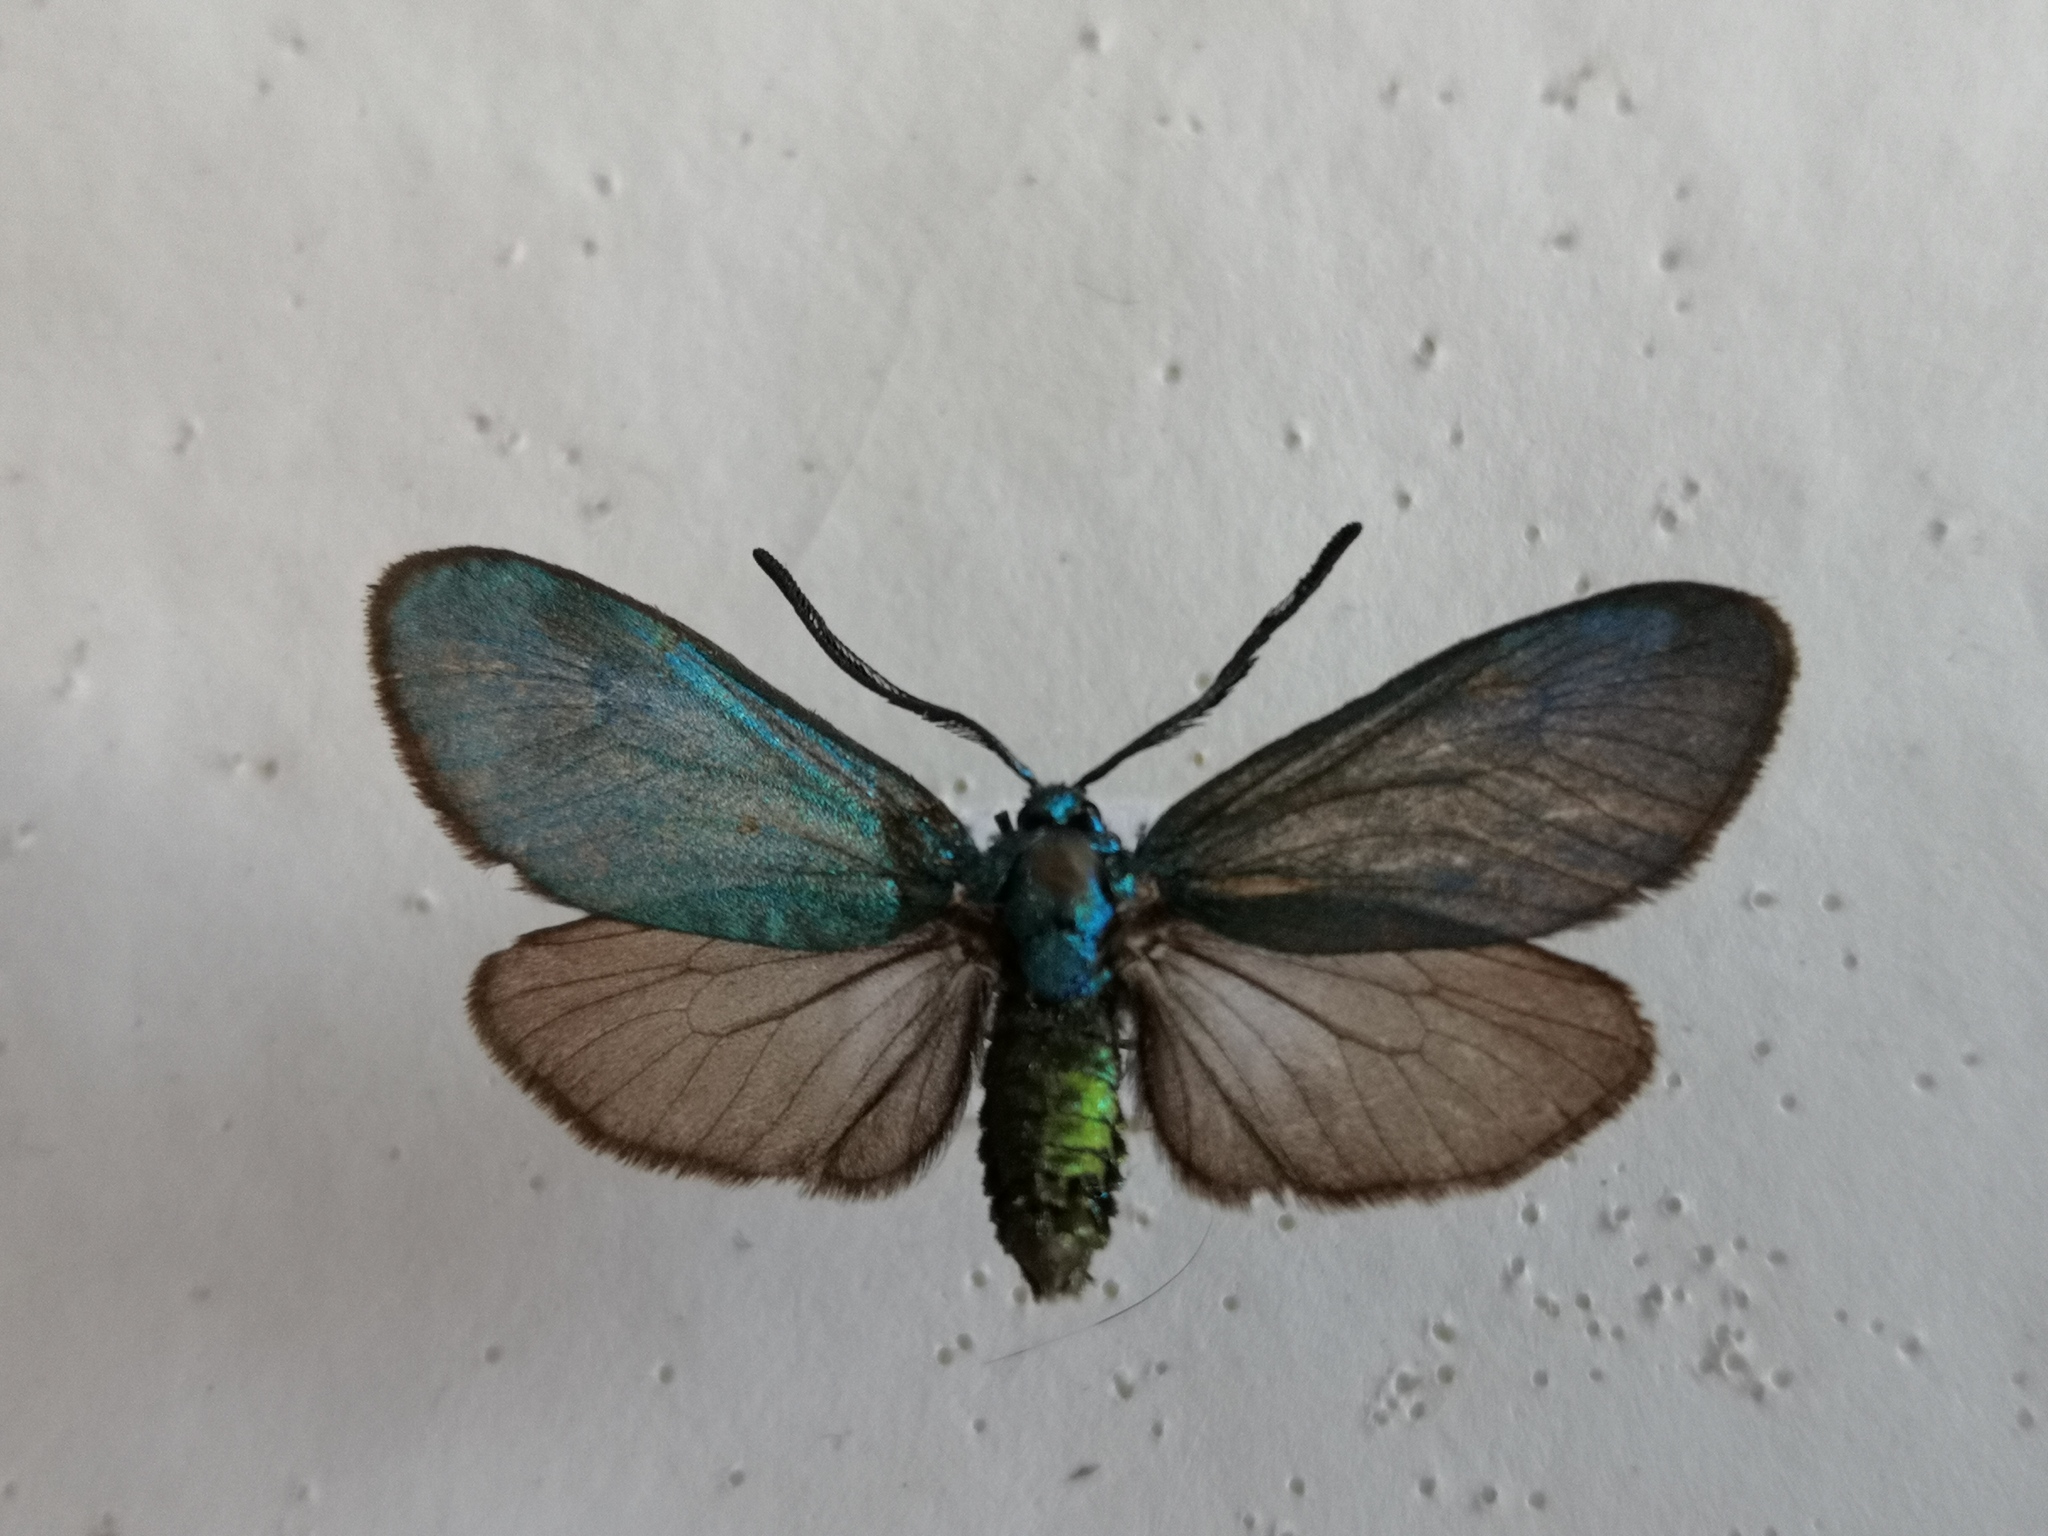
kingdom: Animalia
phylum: Arthropoda
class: Insecta
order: Lepidoptera
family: Zygaenidae
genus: Adscita
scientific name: Adscita statices
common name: Forester
